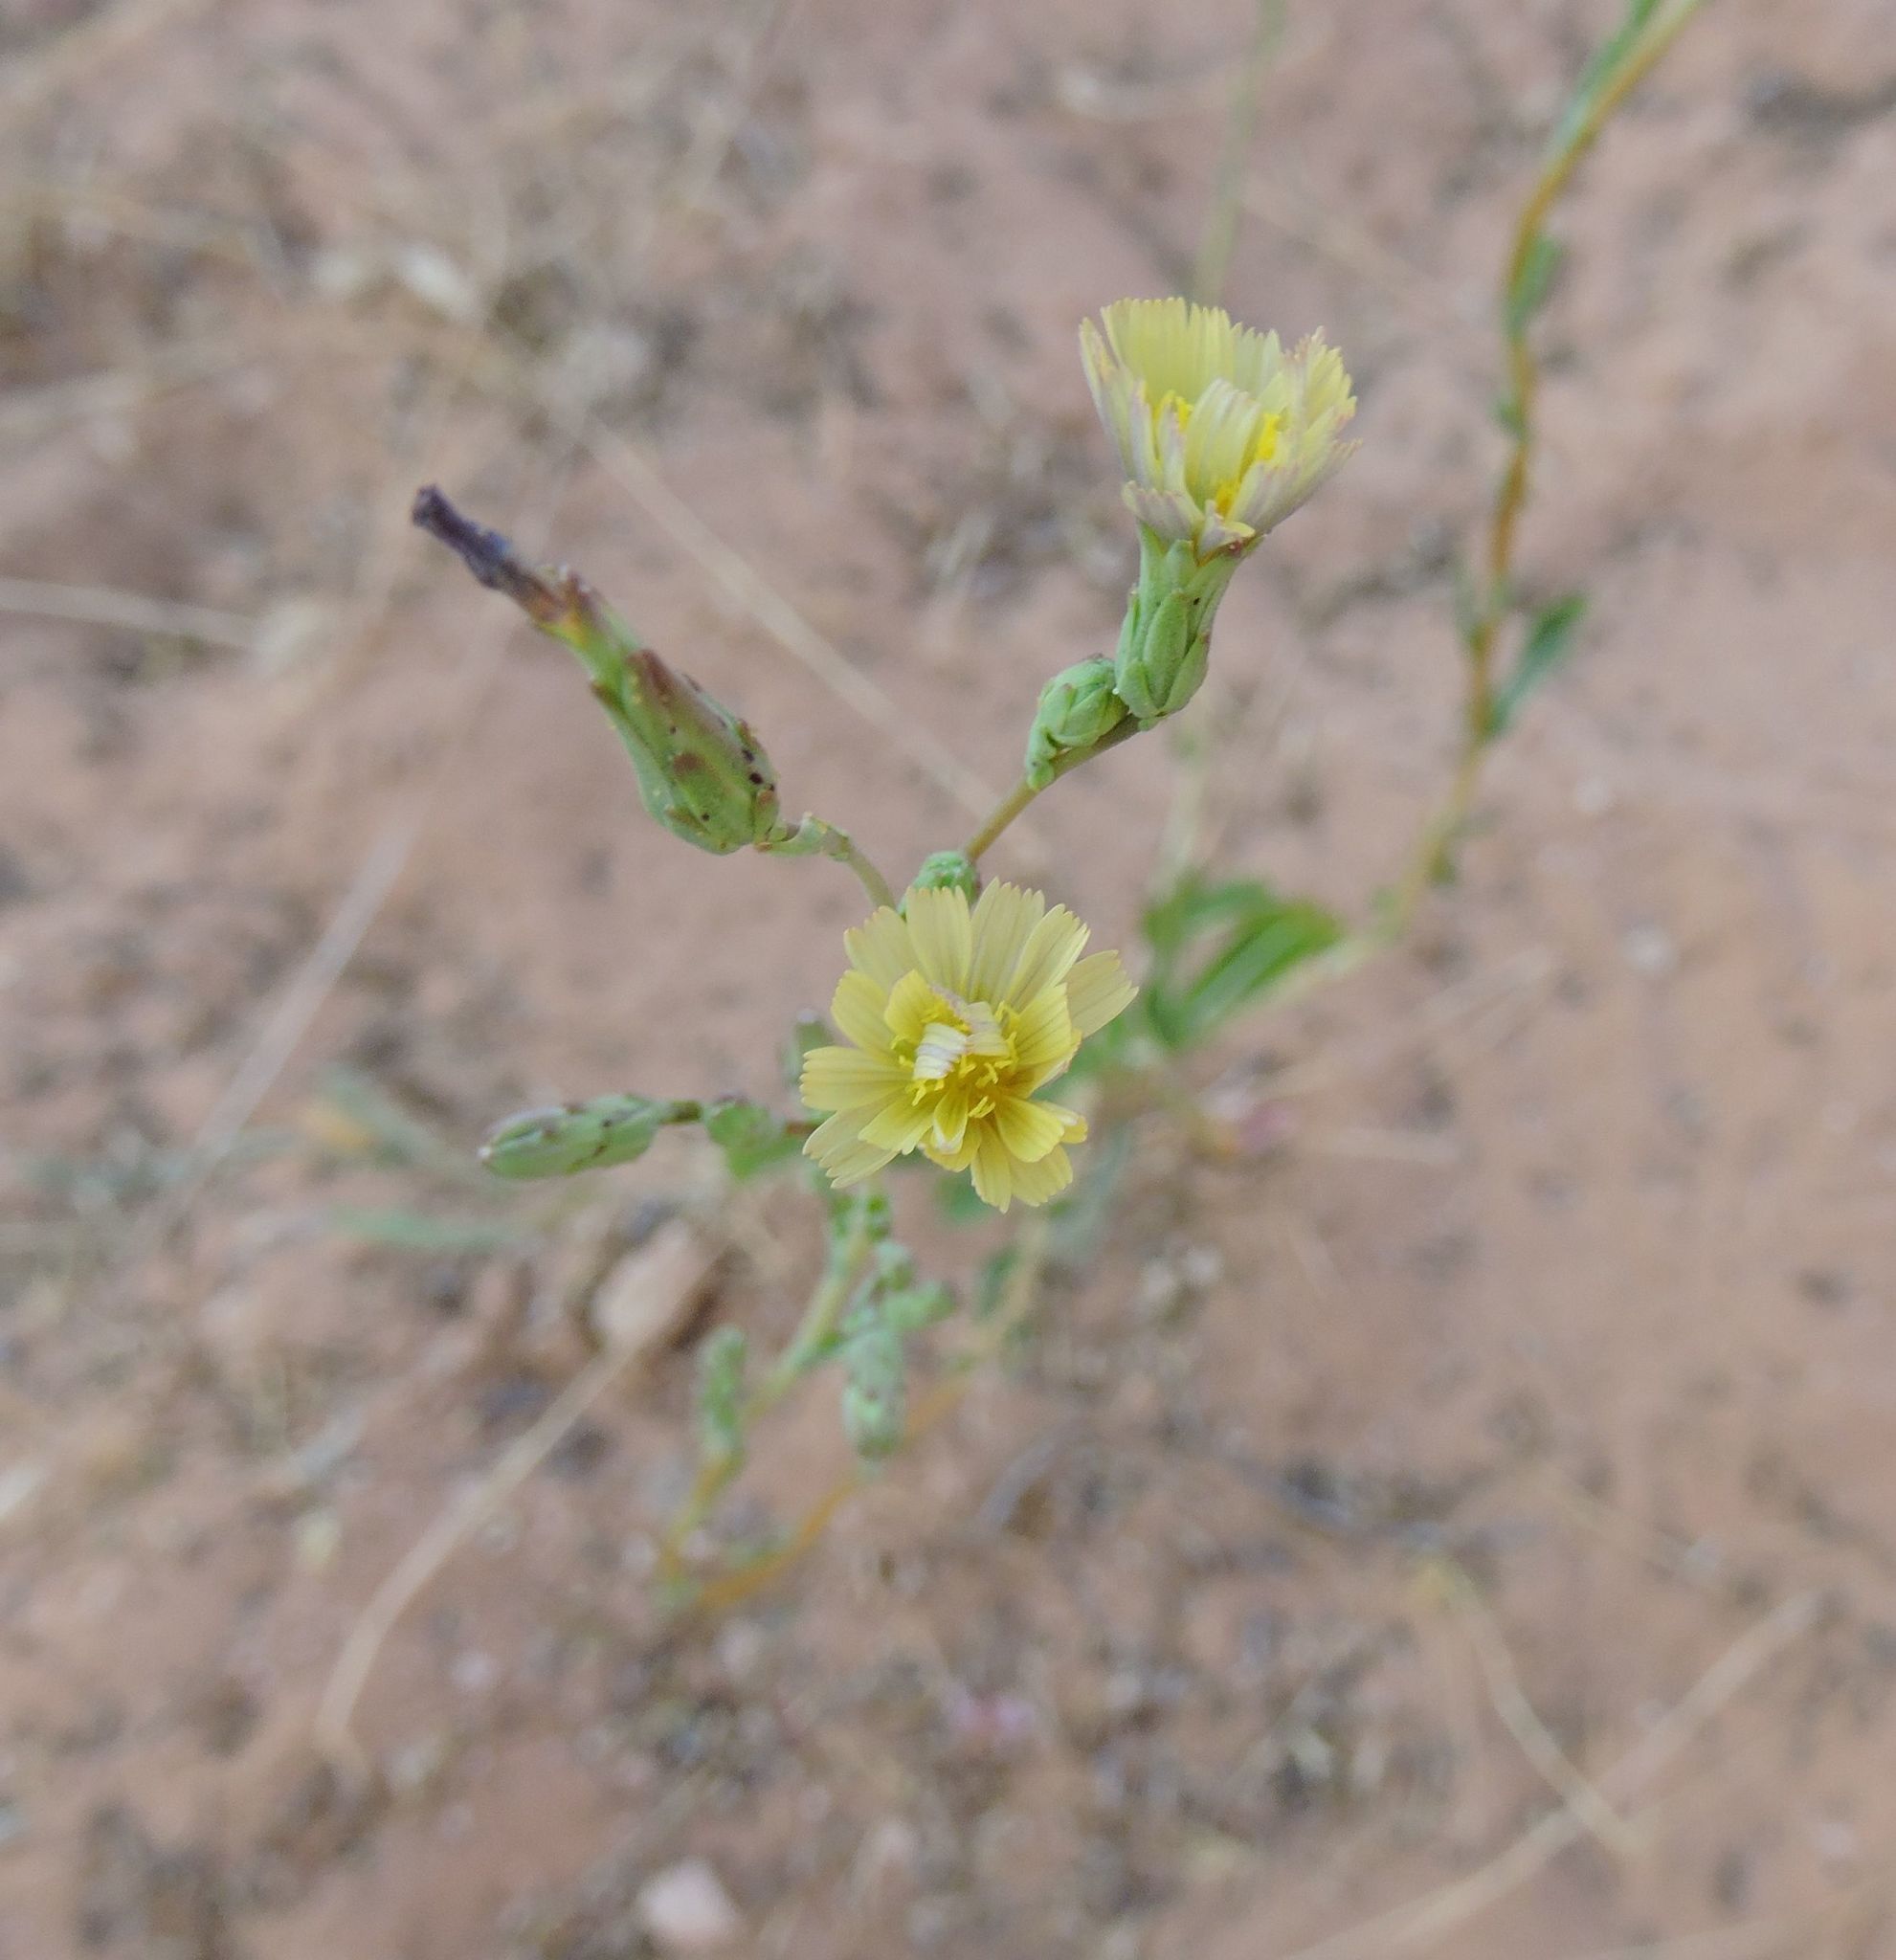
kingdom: Plantae
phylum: Tracheophyta
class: Magnoliopsida
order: Asterales
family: Asteraceae
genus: Lactuca
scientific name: Lactuca serriola
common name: Prickly lettuce
